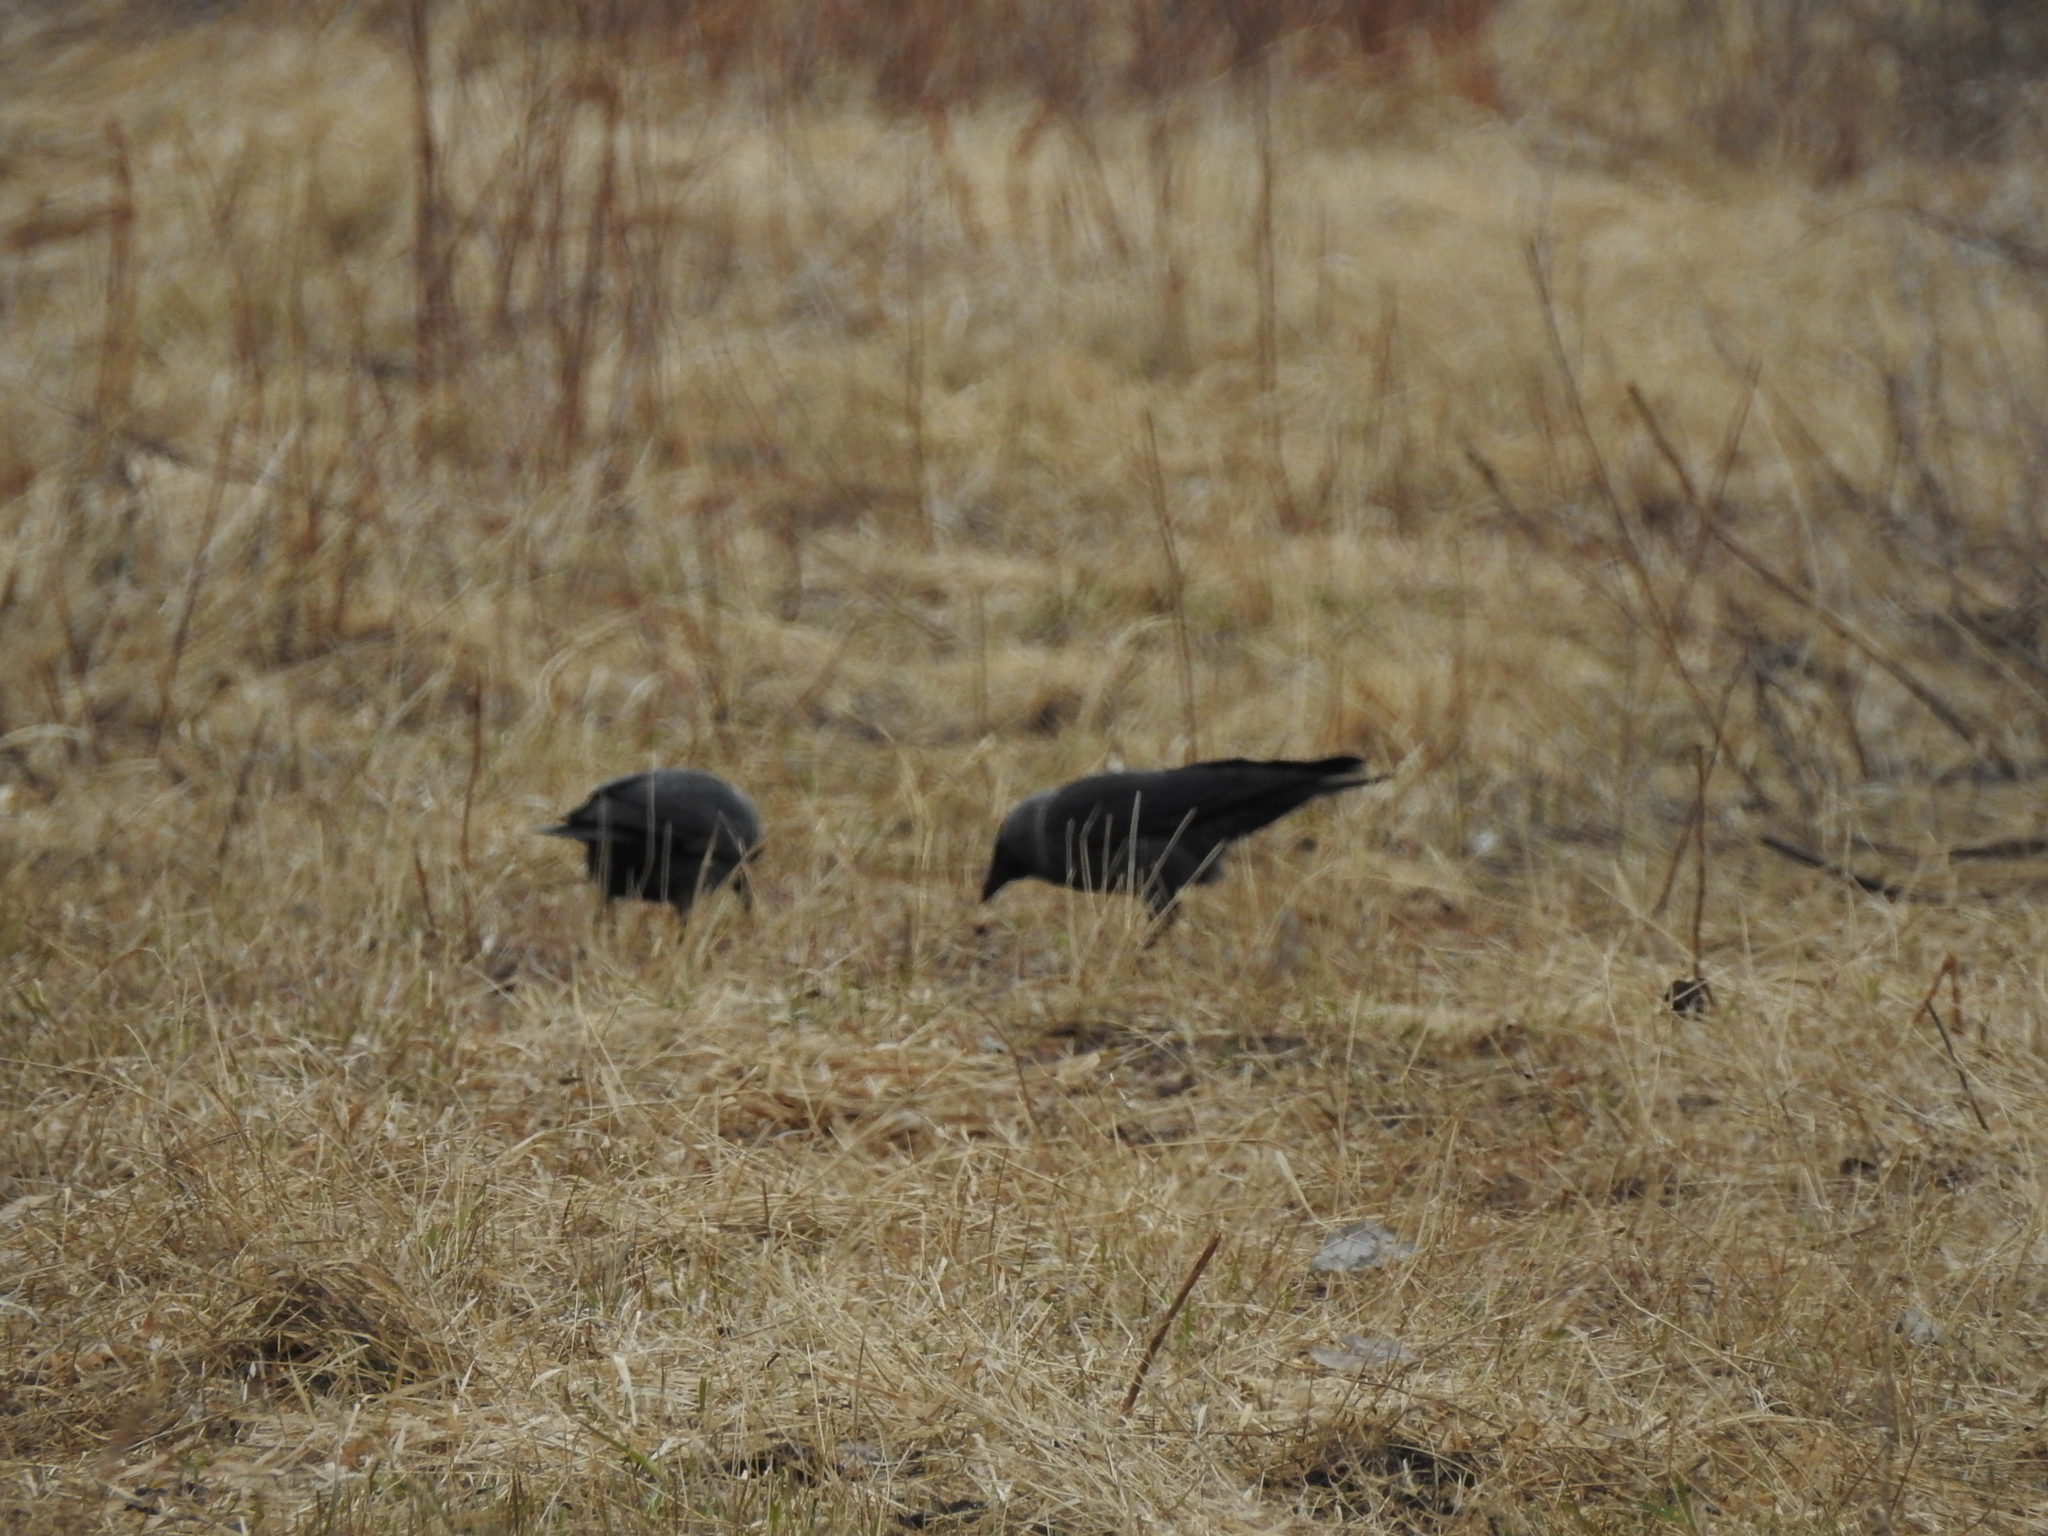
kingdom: Animalia
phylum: Chordata
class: Aves
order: Passeriformes
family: Corvidae
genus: Coloeus
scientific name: Coloeus monedula
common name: Western jackdaw
